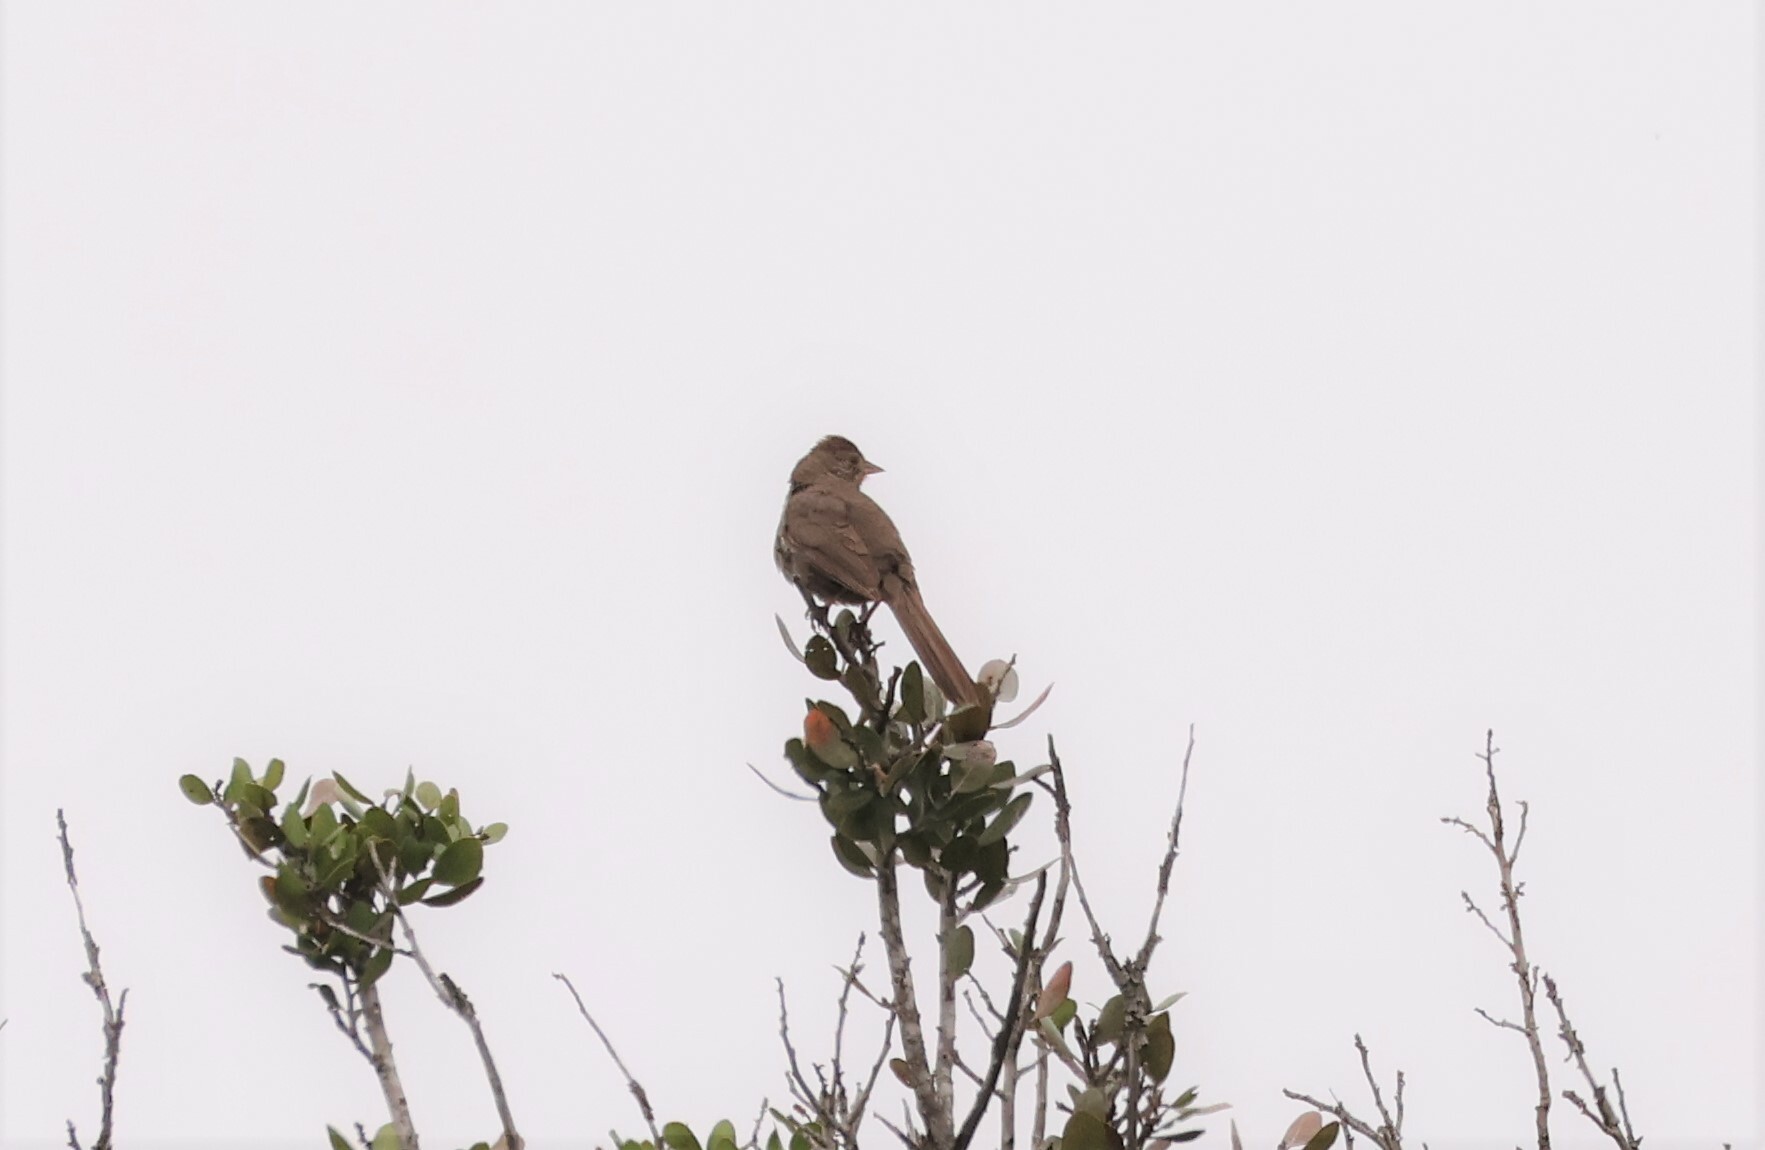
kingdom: Animalia
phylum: Chordata
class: Aves
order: Passeriformes
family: Passerellidae
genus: Melozone
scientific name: Melozone crissalis
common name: California towhee
